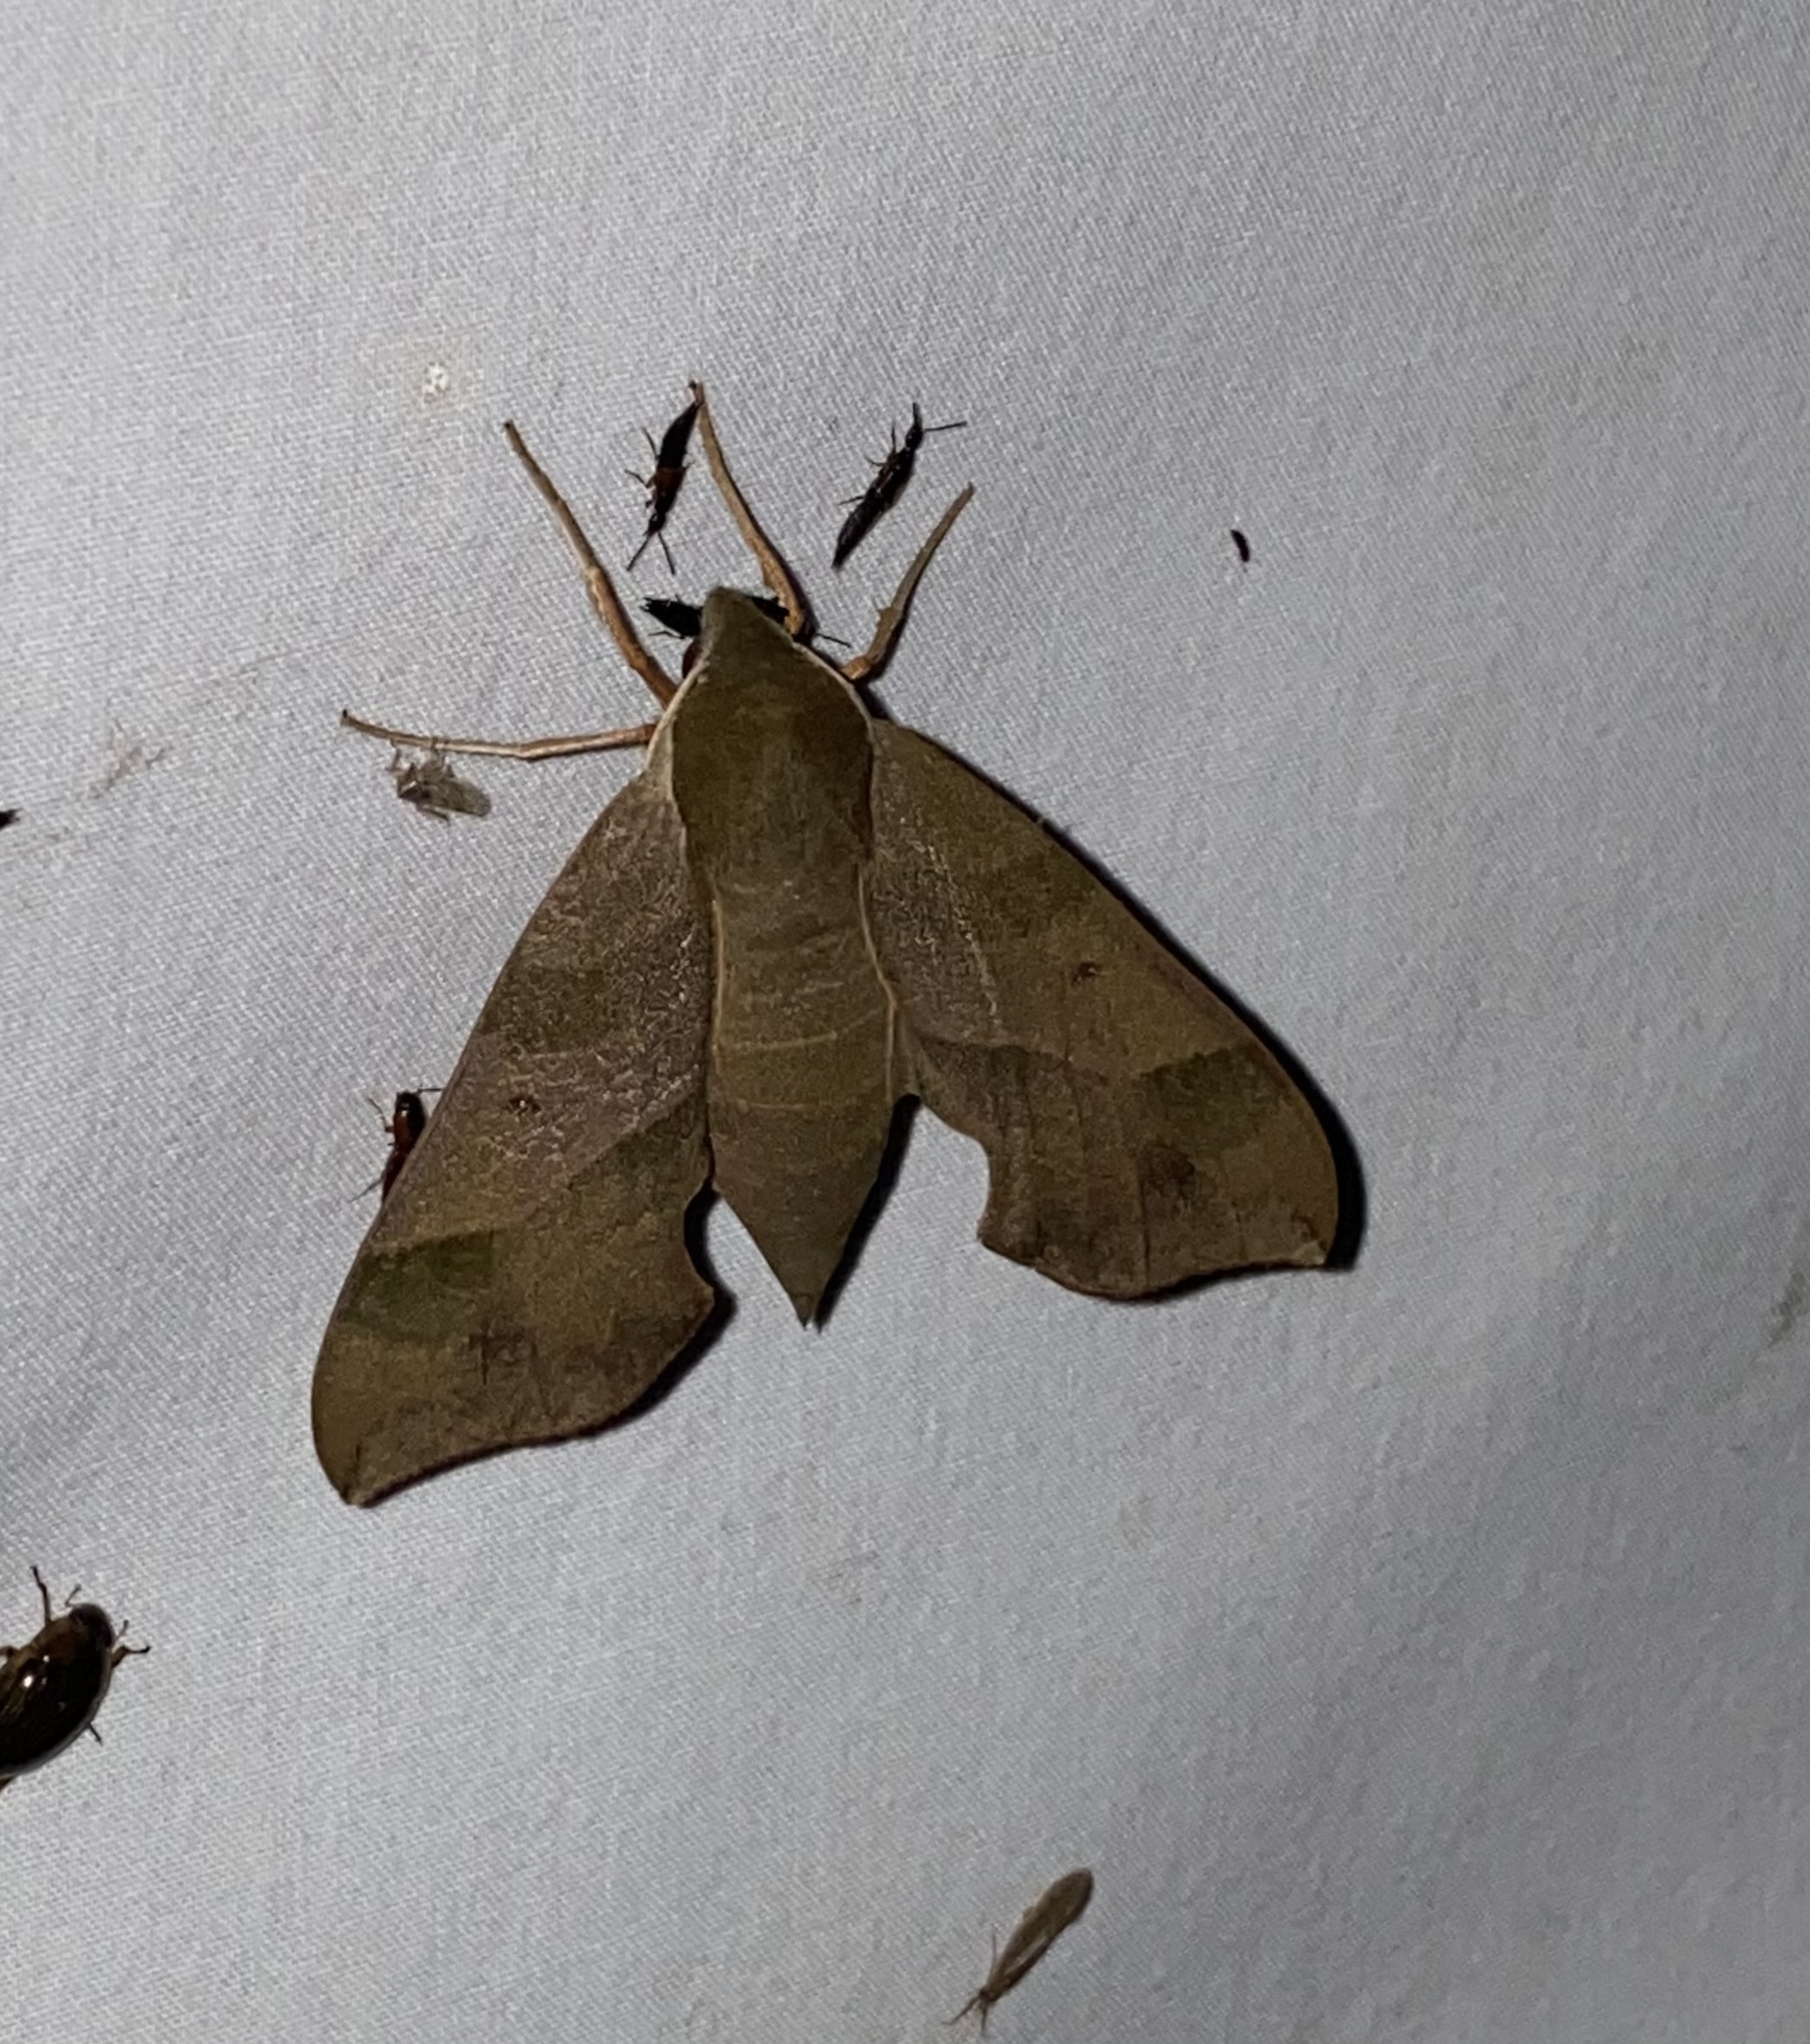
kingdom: Animalia
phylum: Arthropoda
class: Insecta
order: Lepidoptera
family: Sphingidae
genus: Darapsa
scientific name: Darapsa myron
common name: Hog sphinx
